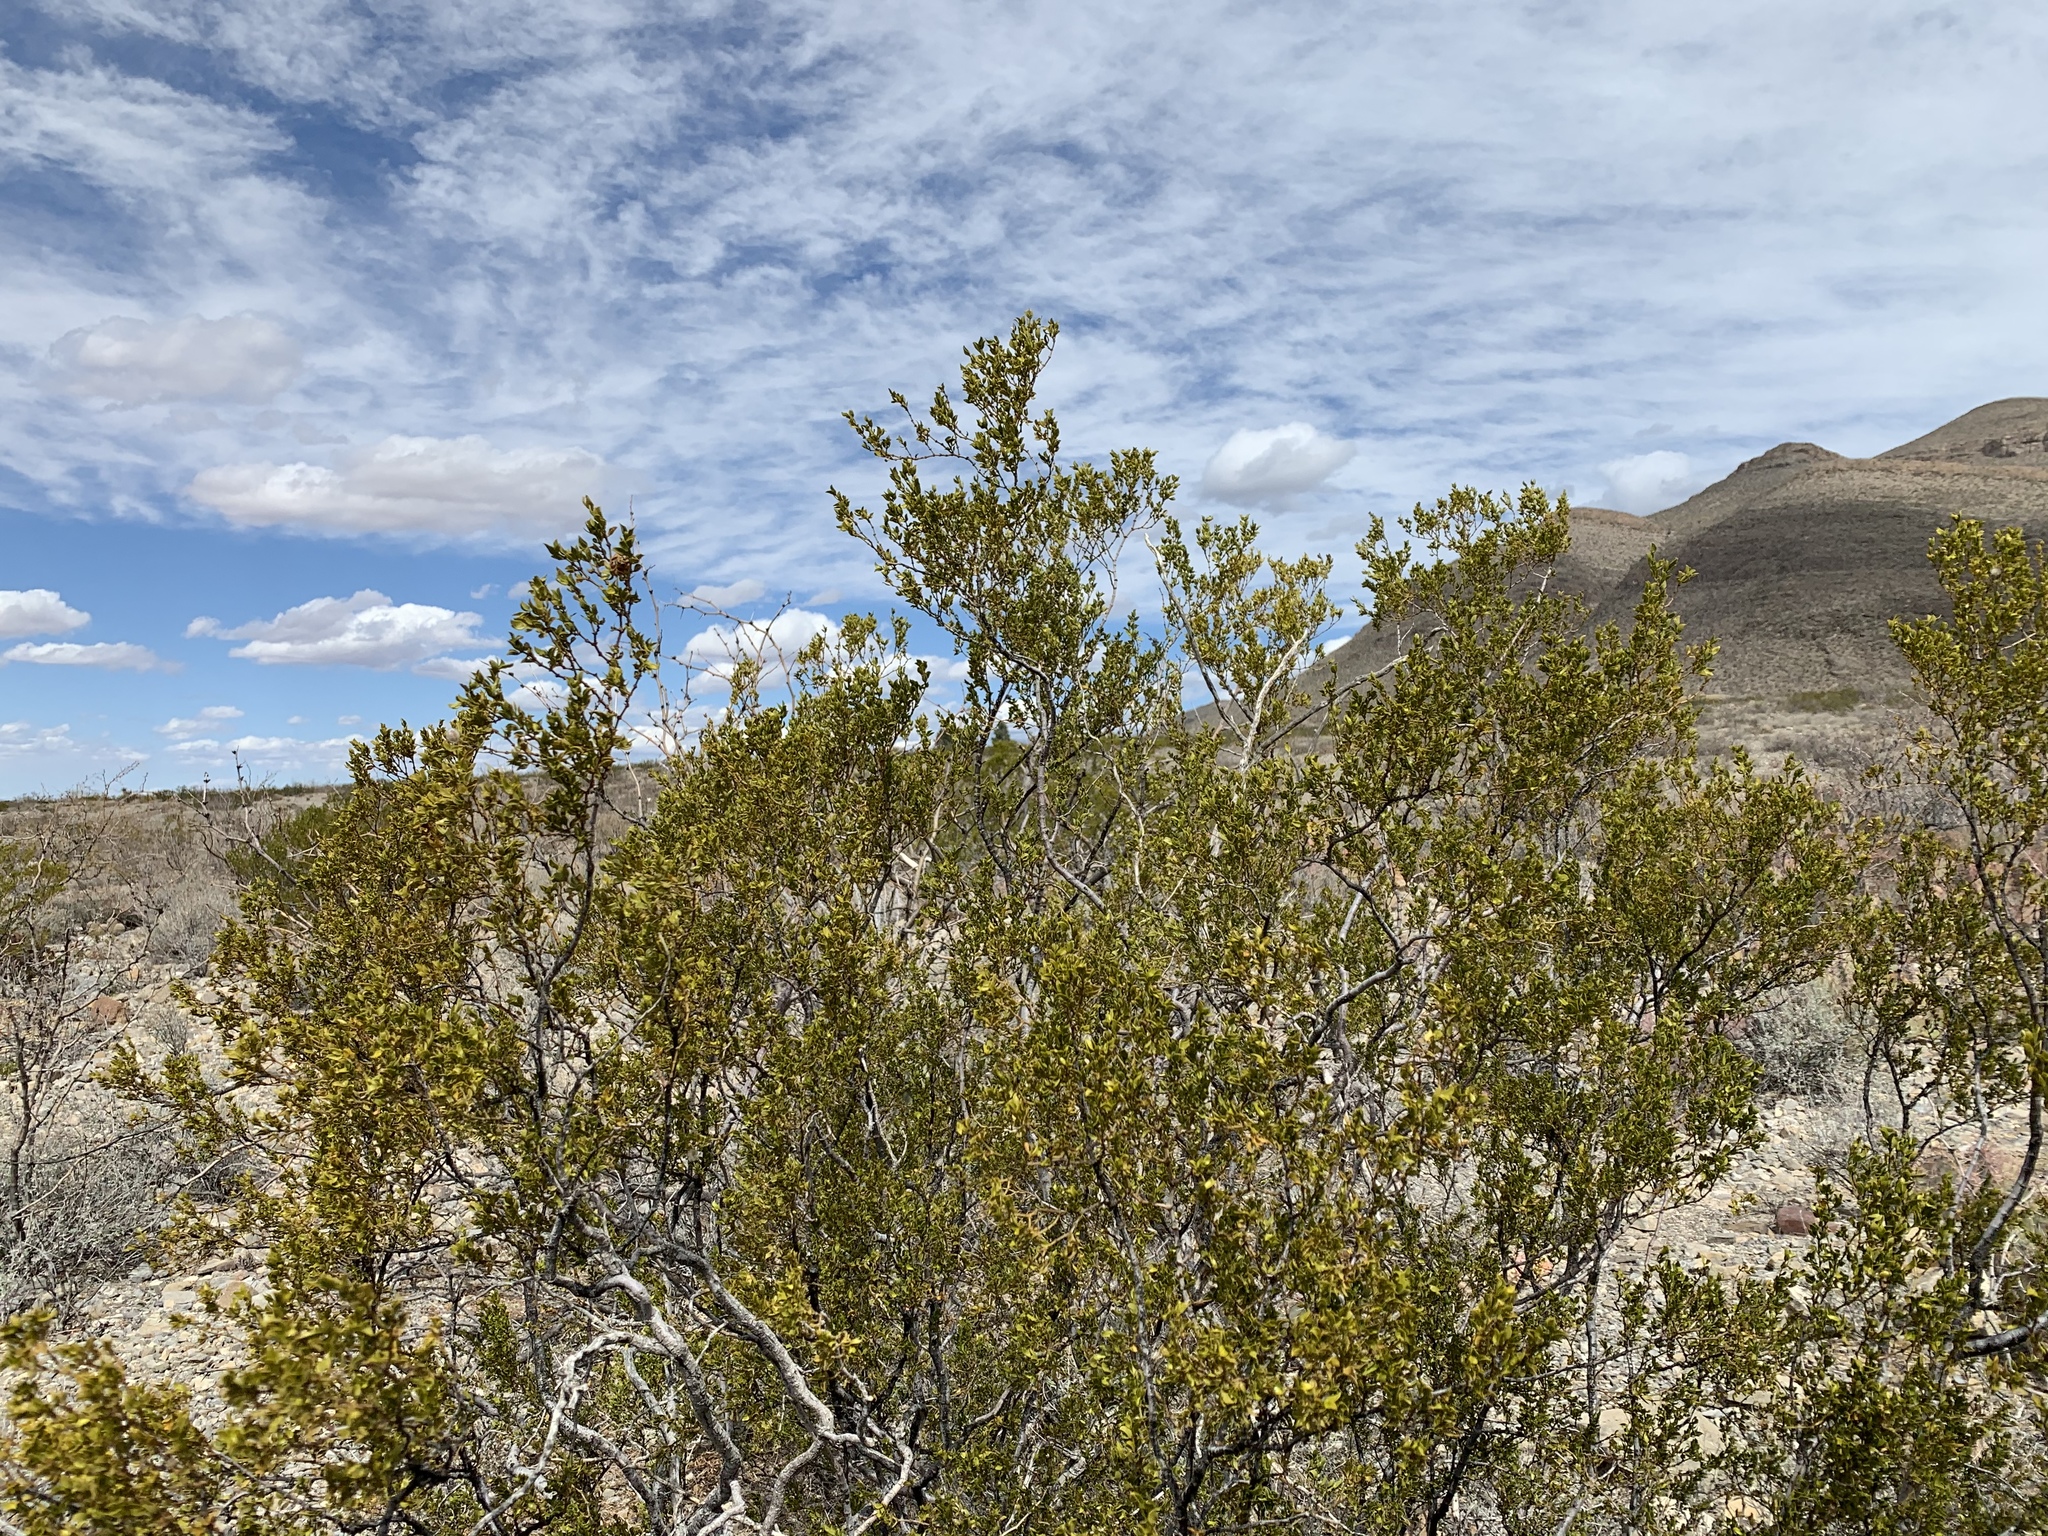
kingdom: Plantae
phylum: Tracheophyta
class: Magnoliopsida
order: Zygophyllales
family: Zygophyllaceae
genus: Larrea
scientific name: Larrea tridentata
